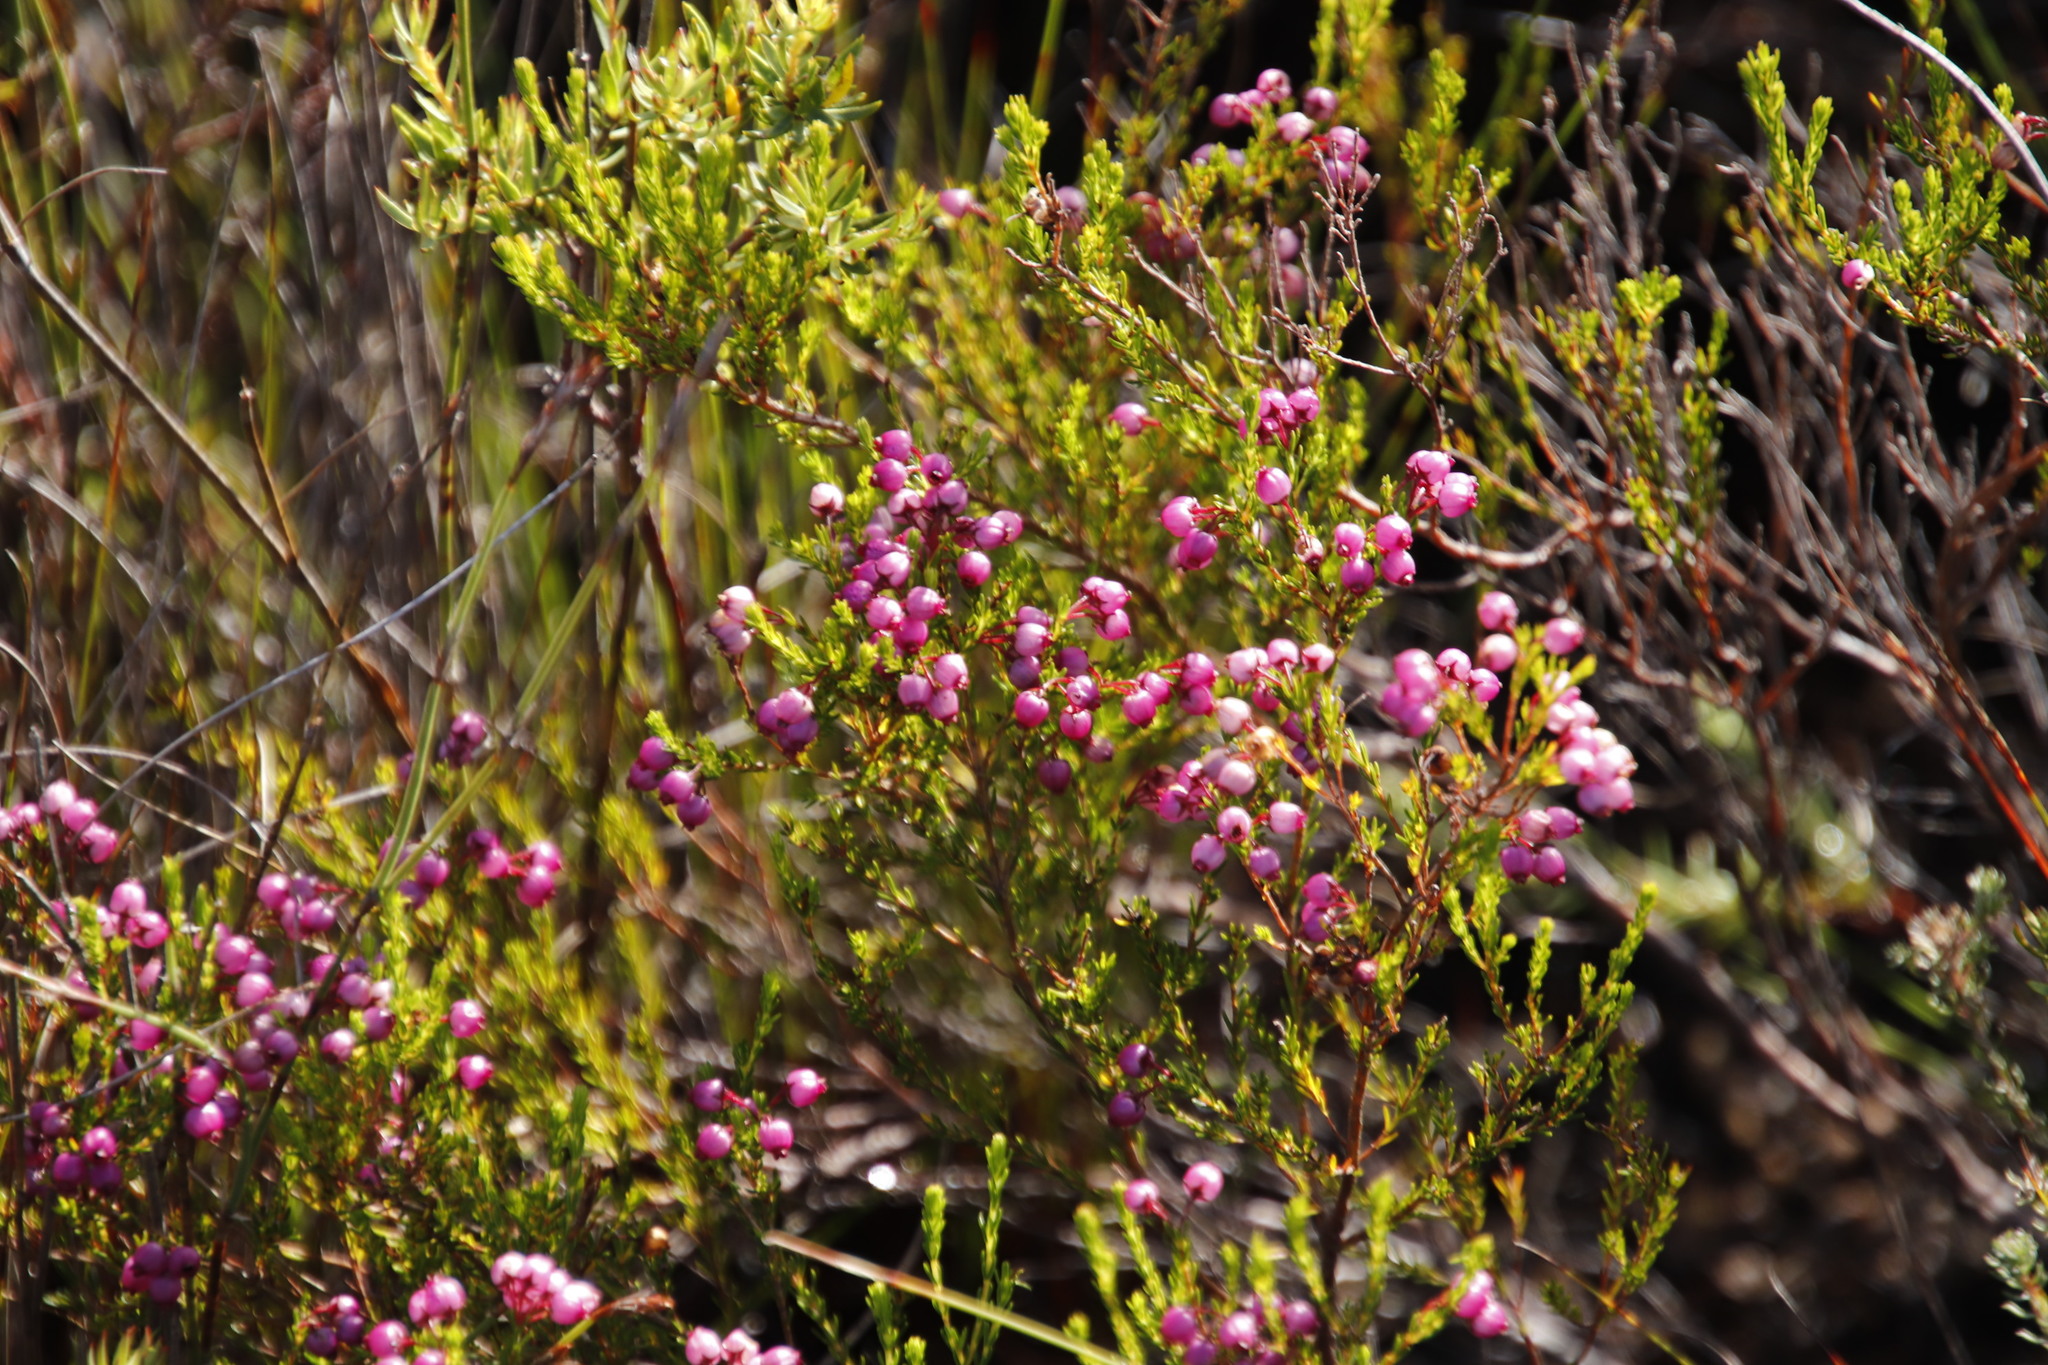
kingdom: Plantae
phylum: Tracheophyta
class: Magnoliopsida
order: Ericales
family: Ericaceae
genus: Erica
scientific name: Erica multumbellifera
